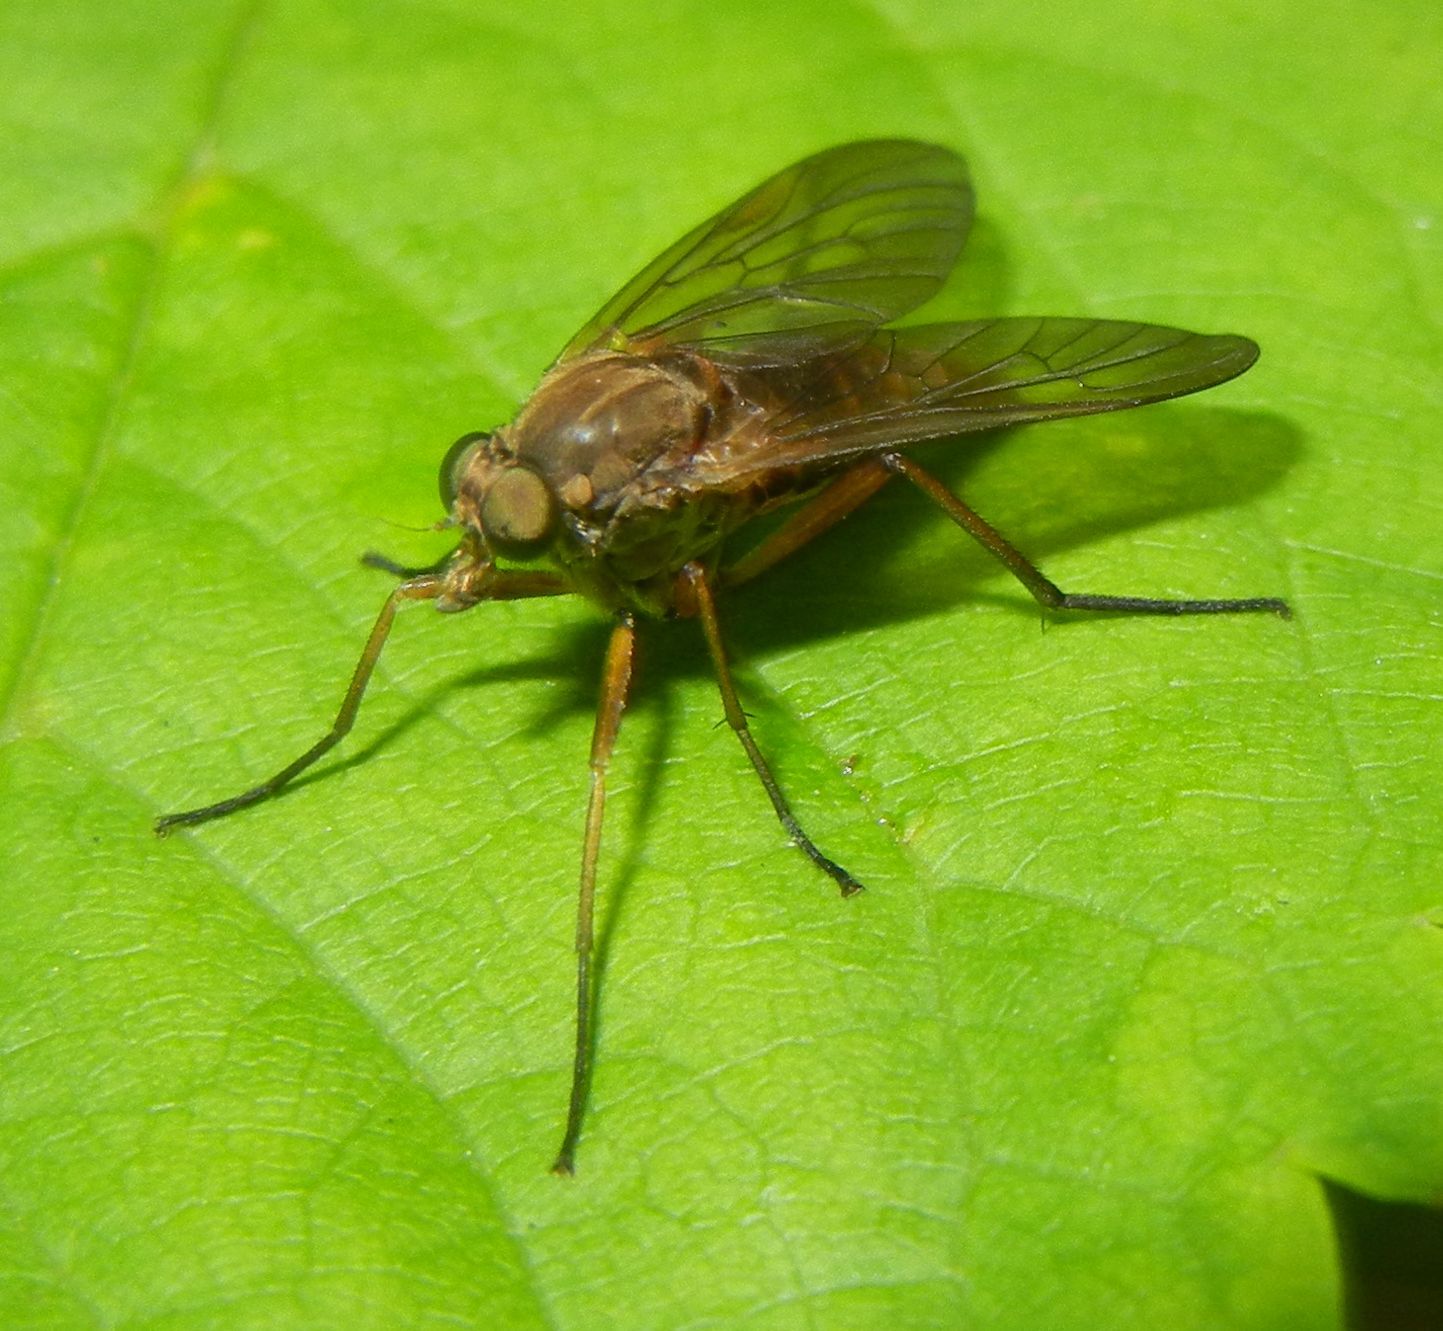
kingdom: Animalia
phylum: Arthropoda
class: Insecta
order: Diptera
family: Rhagionidae
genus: Rhagio
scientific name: Rhagio tringaria
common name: Marsh snipefly
